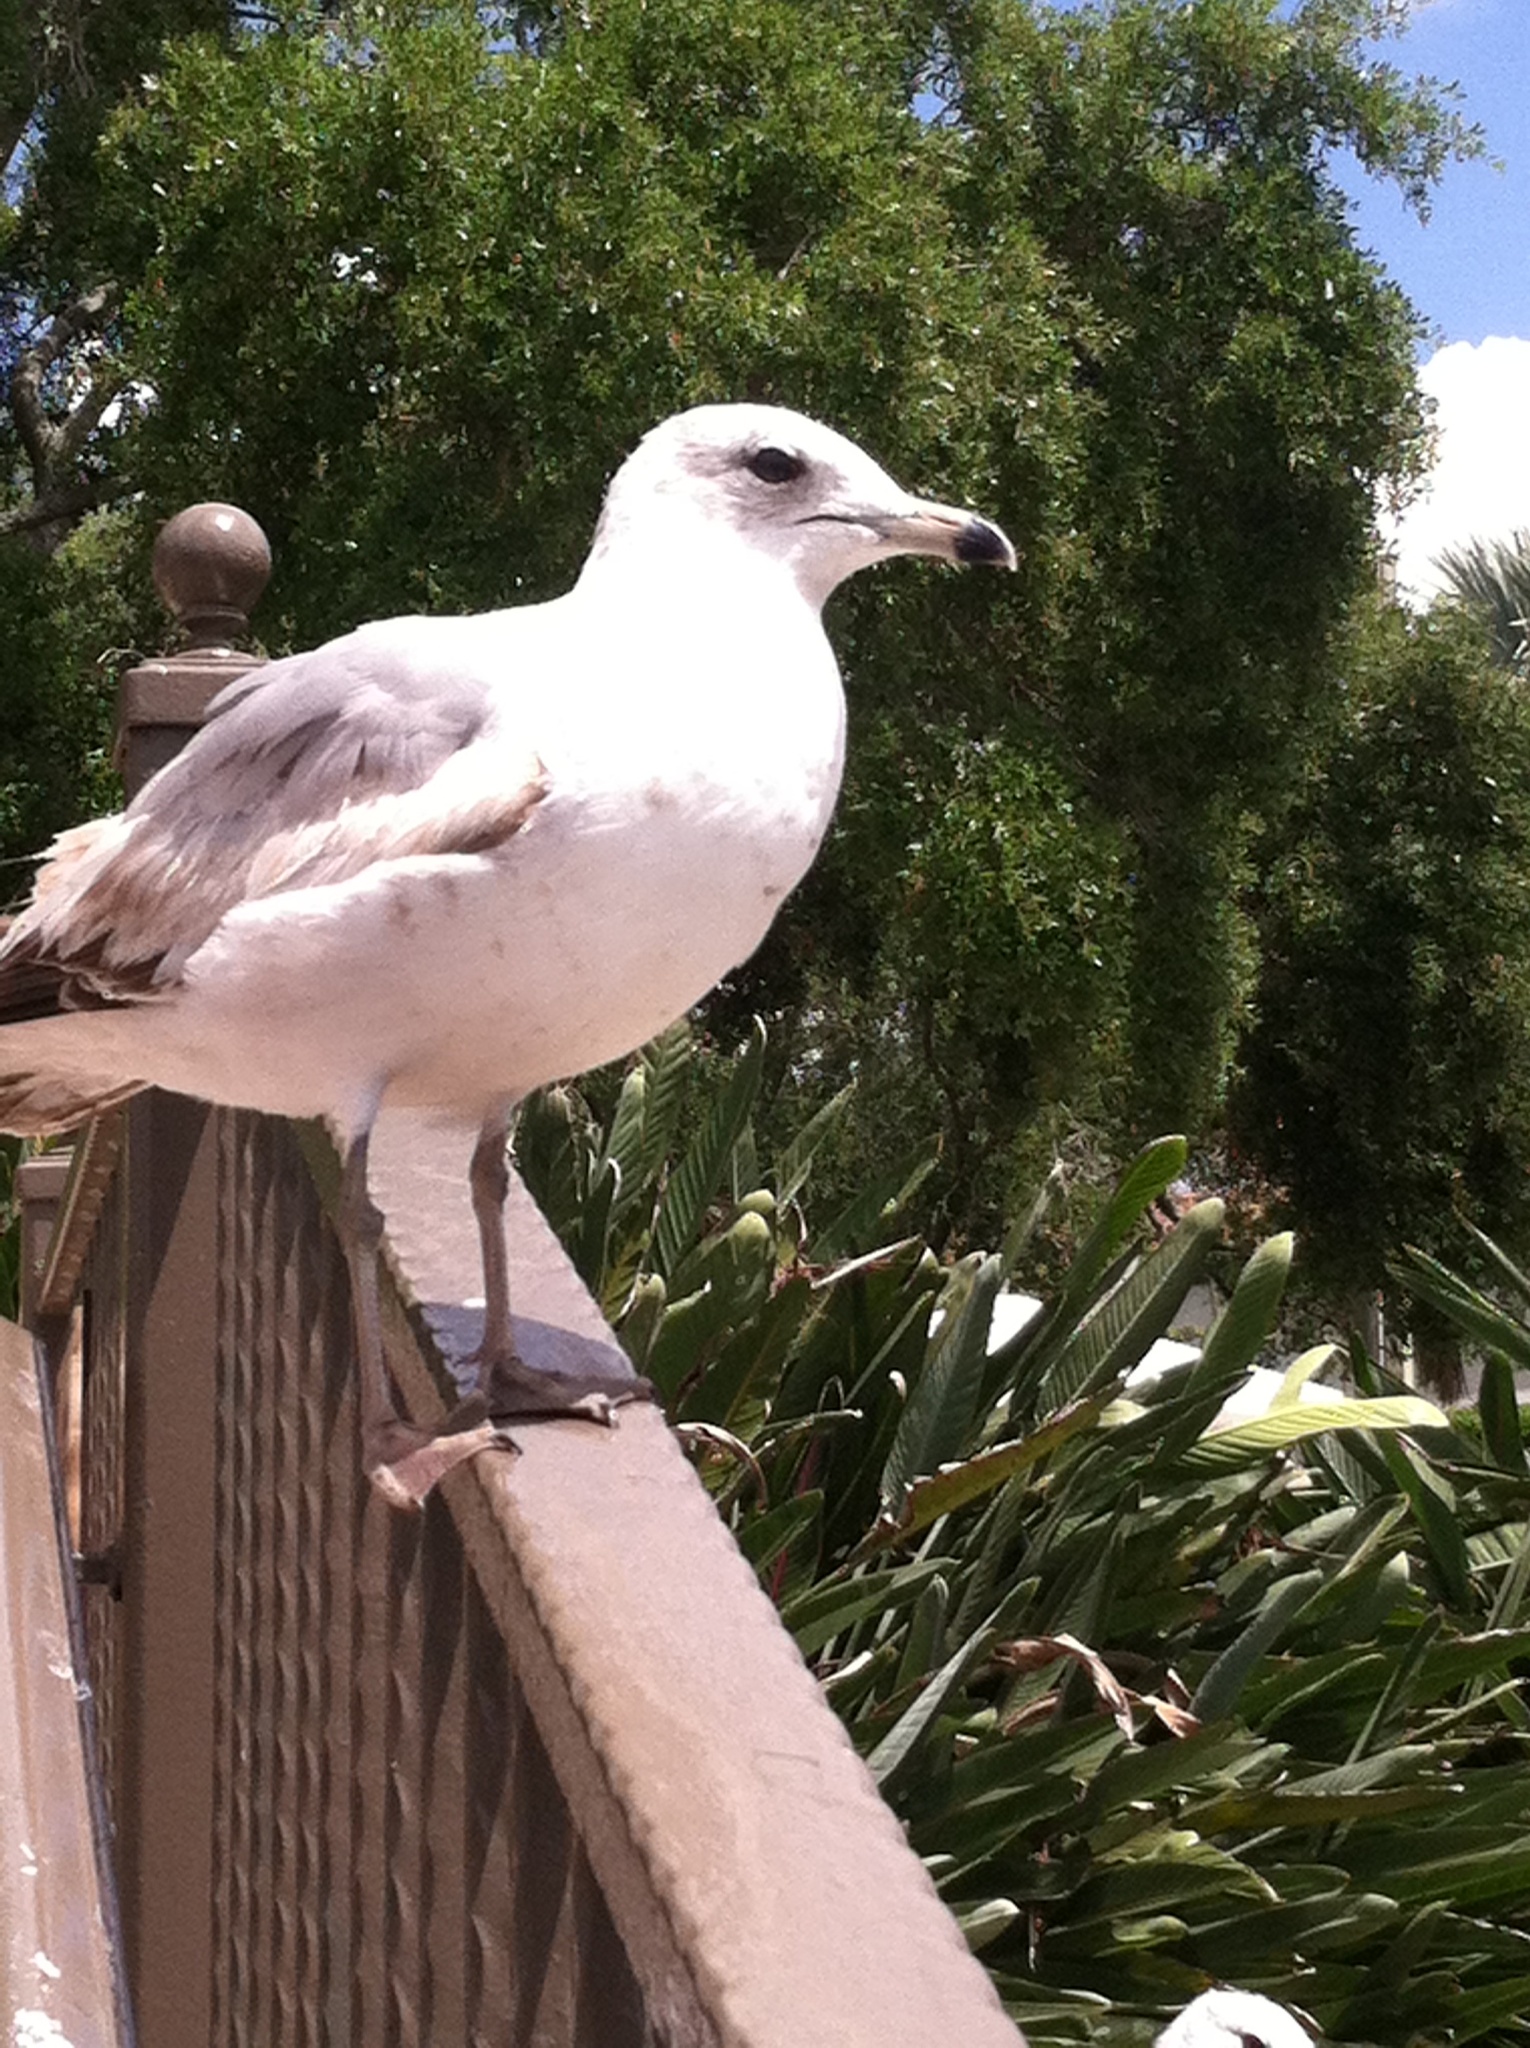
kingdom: Animalia
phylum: Chordata
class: Aves
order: Charadriiformes
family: Laridae
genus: Larus
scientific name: Larus delawarensis
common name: Ring-billed gull
